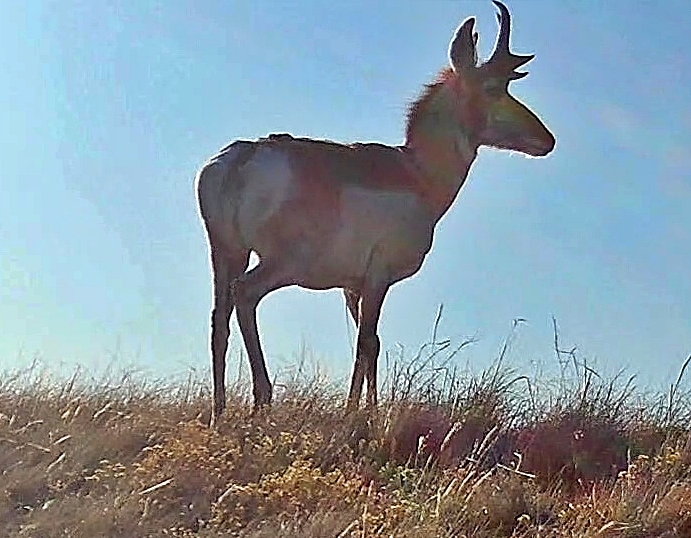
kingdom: Animalia
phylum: Chordata
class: Mammalia
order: Artiodactyla
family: Antilocapridae
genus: Antilocapra
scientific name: Antilocapra americana
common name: Pronghorn
